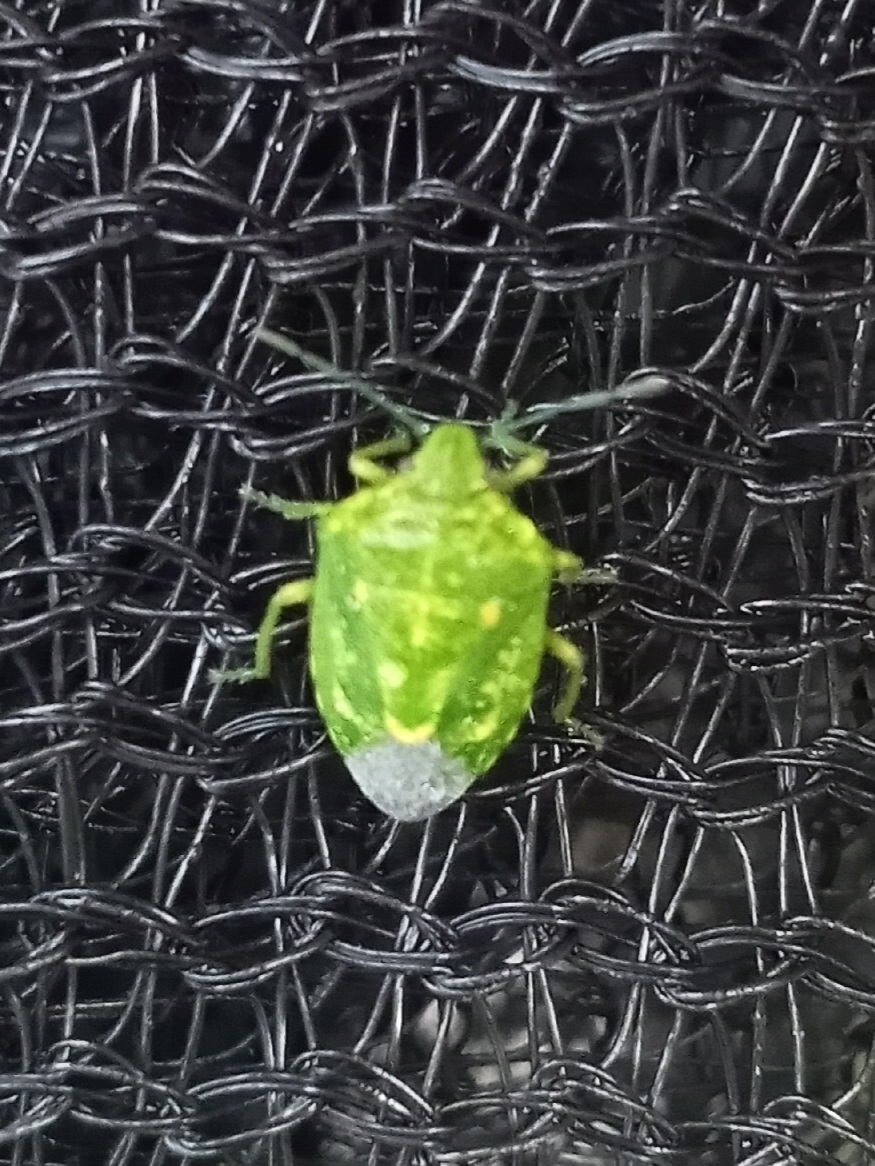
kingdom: Animalia
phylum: Arthropoda
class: Insecta
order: Hemiptera
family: Pentatomidae
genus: Banasa
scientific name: Banasa euchlora
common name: Cedar berry bug
